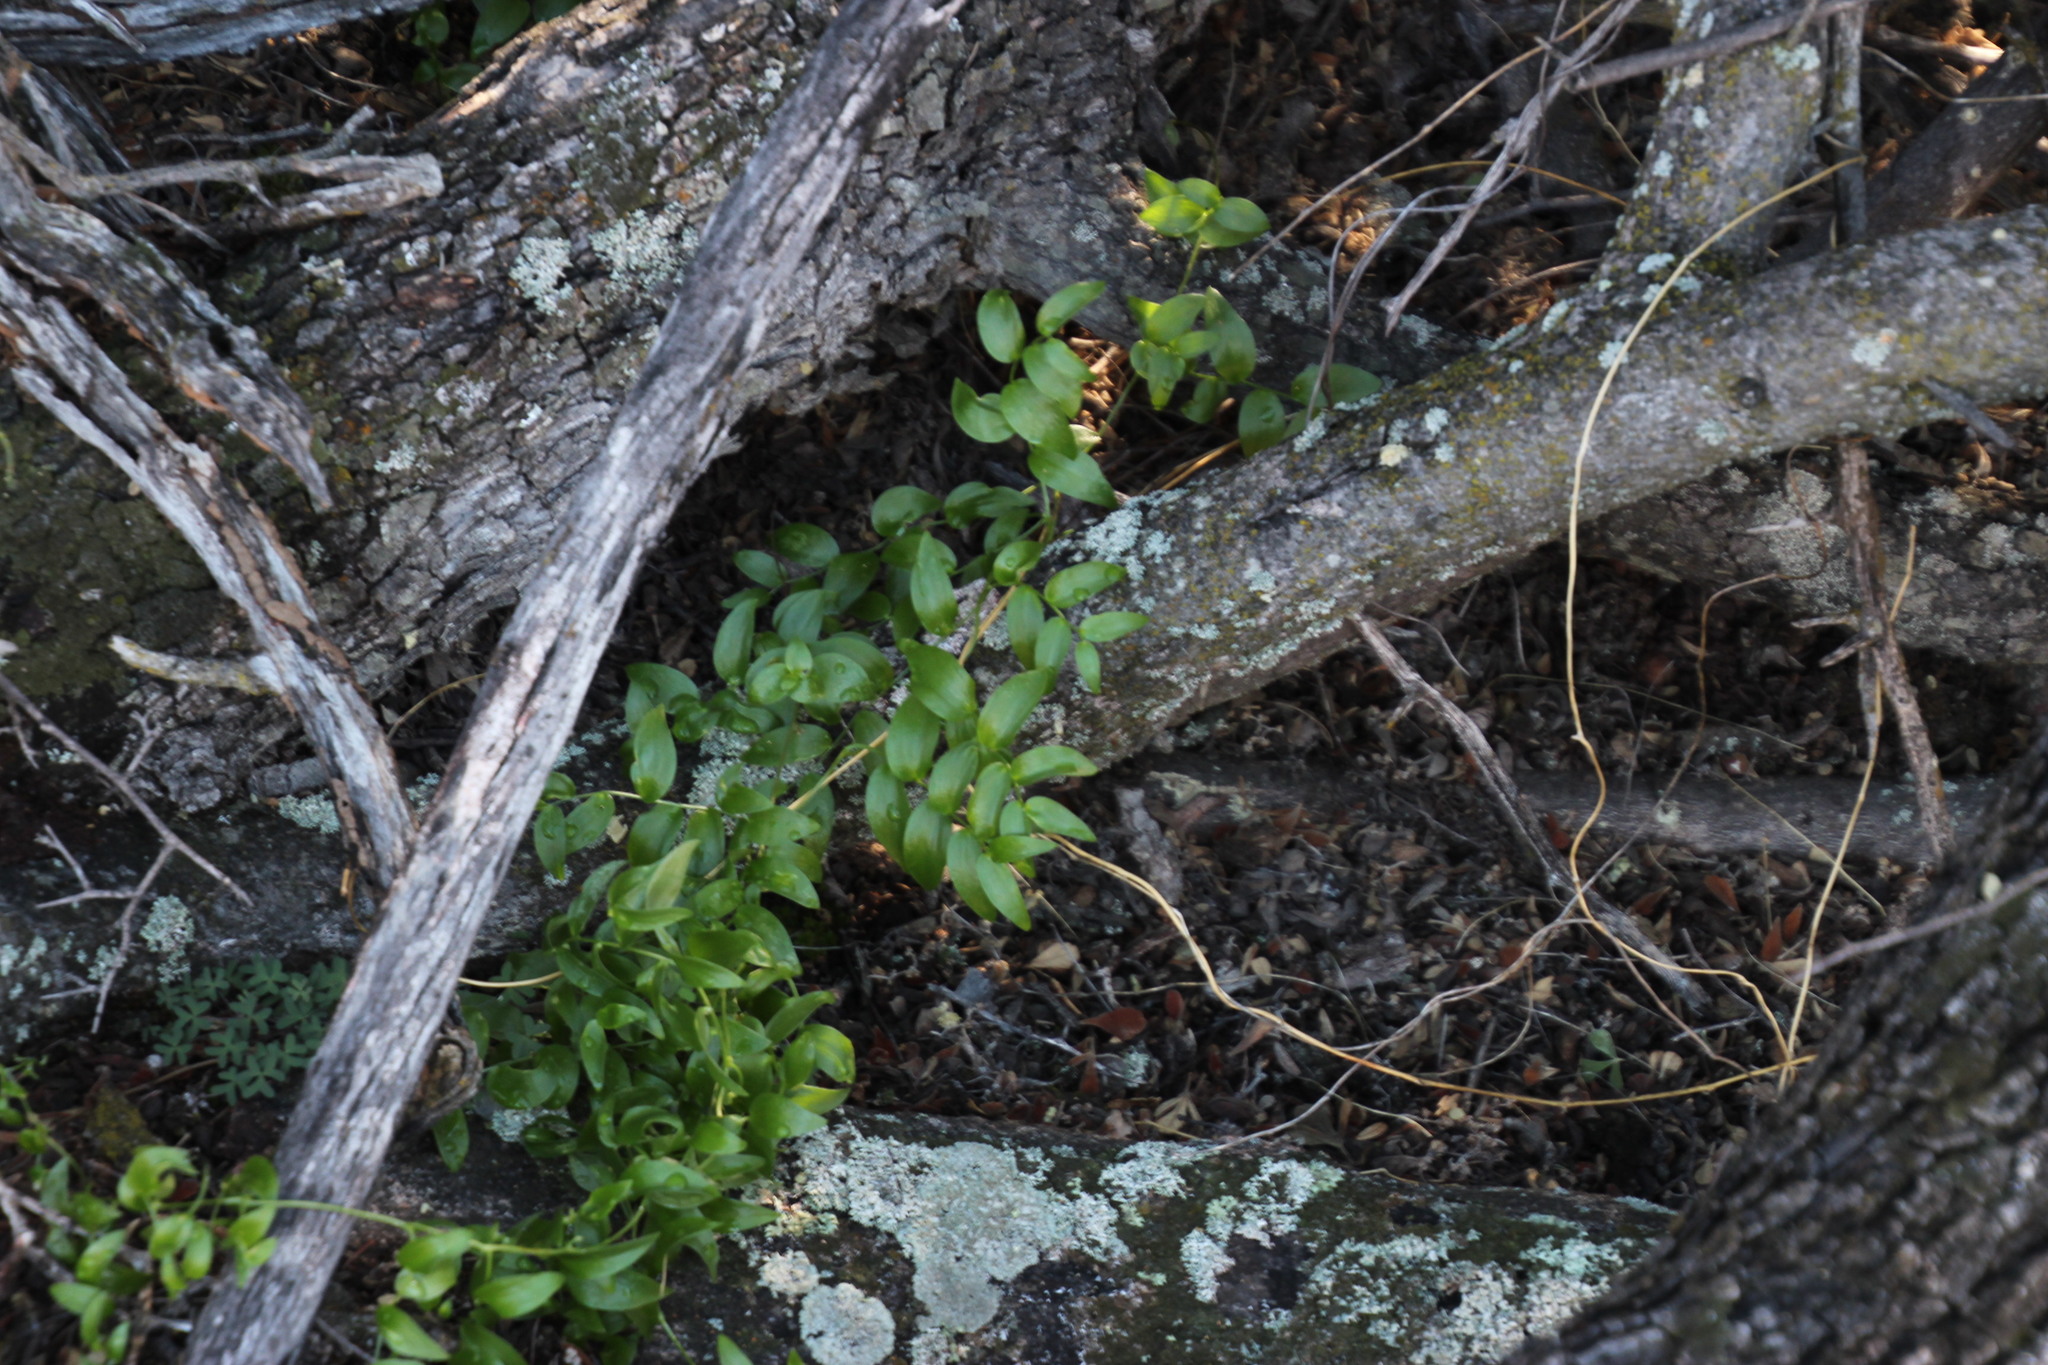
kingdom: Plantae
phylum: Tracheophyta
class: Liliopsida
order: Asparagales
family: Asparagaceae
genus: Asparagus
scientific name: Asparagus asparagoides
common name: African asparagus fern
